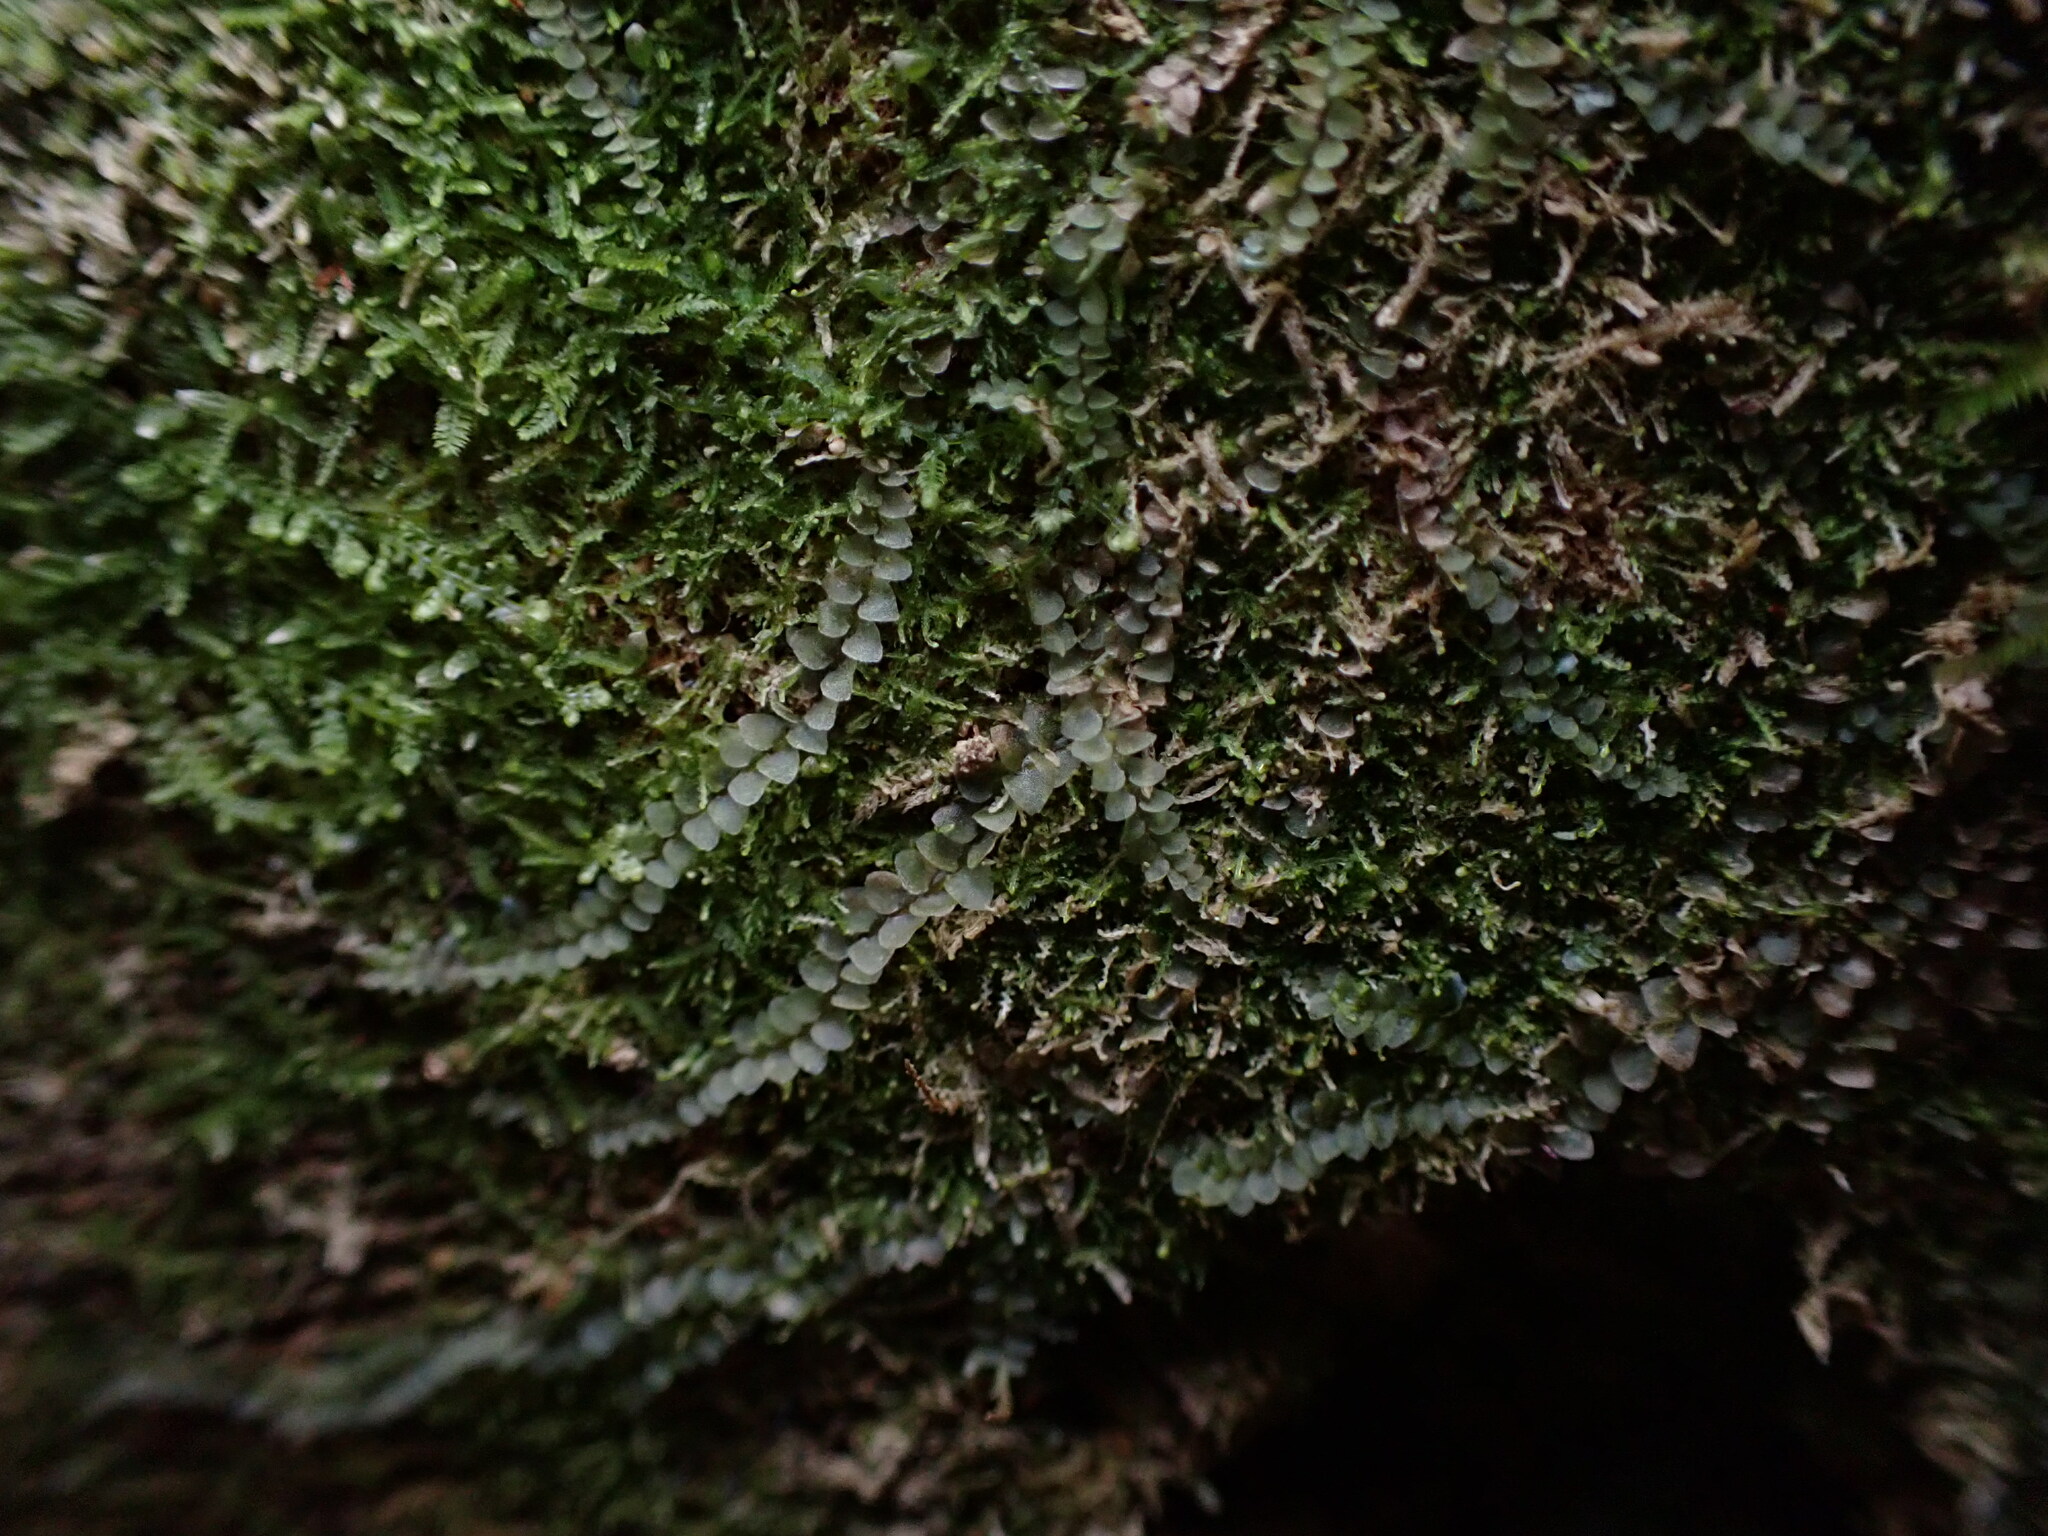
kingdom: Plantae
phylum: Marchantiophyta
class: Jungermanniopsida
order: Jungermanniales
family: Calypogeiaceae
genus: Calypogeia
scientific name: Calypogeia azurea
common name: Blue pouchwort
